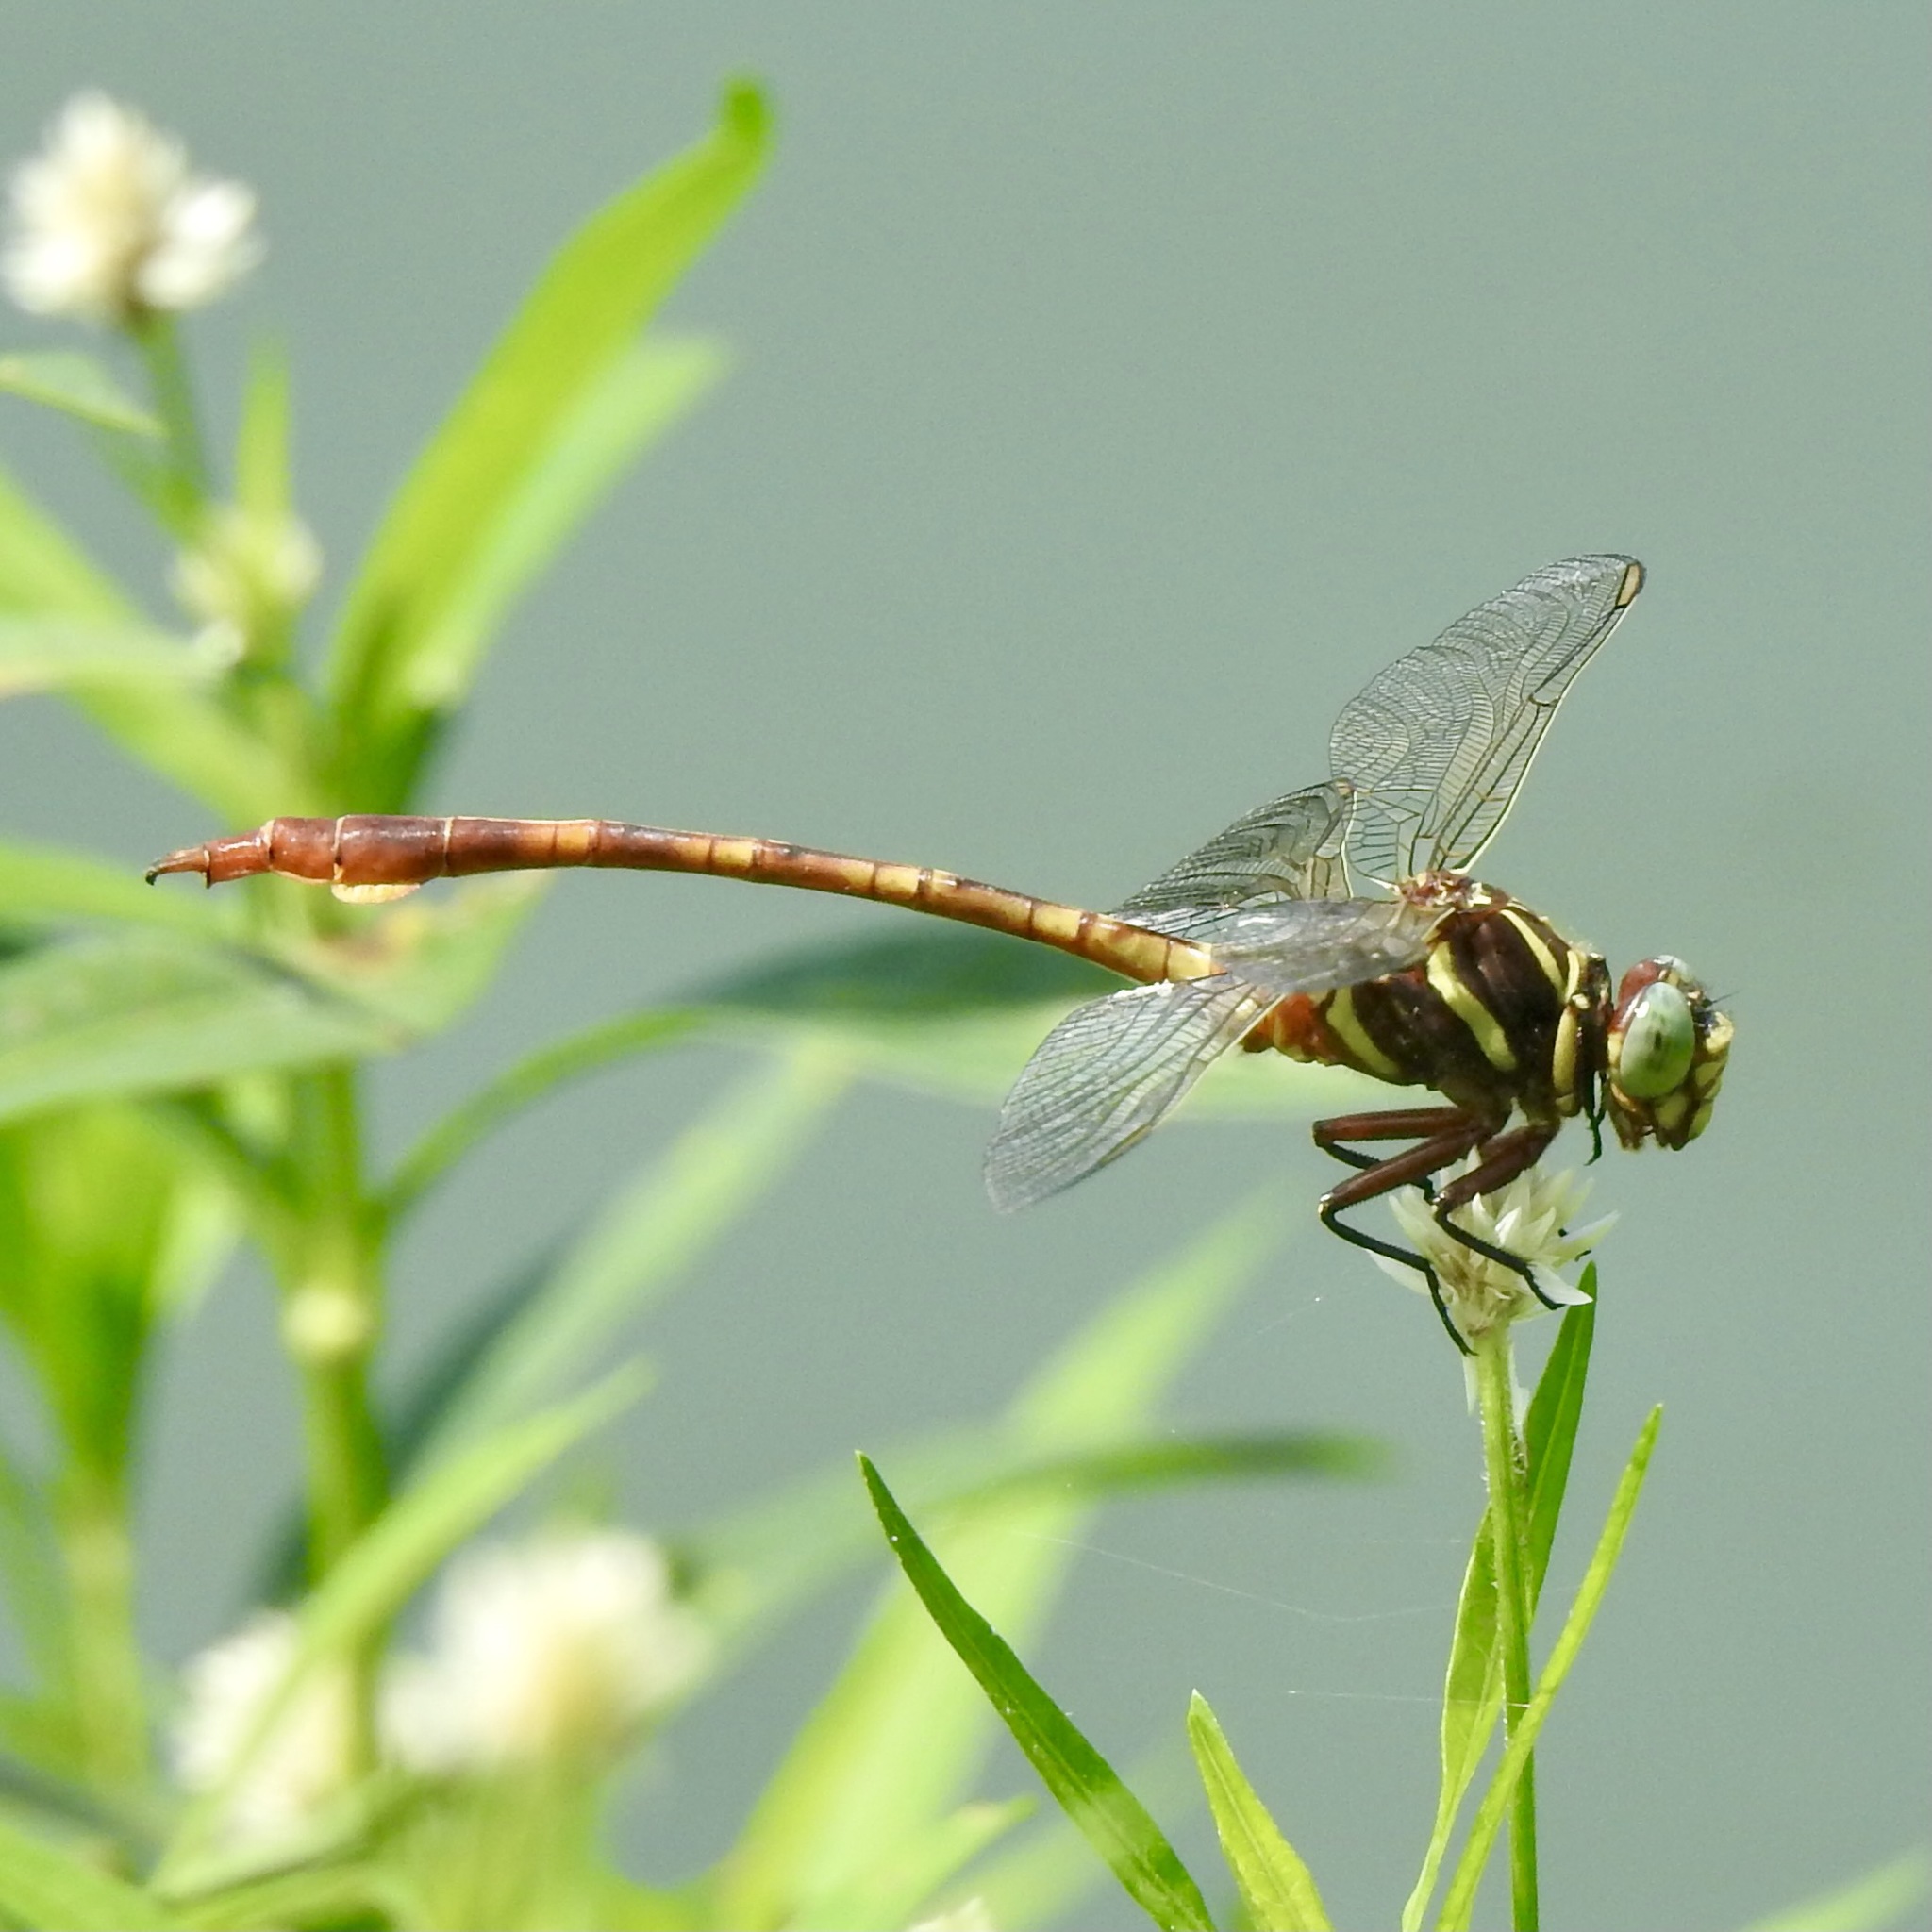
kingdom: Animalia
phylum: Arthropoda
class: Insecta
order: Odonata
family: Gomphidae
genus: Aphylla
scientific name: Aphylla williamsoni
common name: Two-striped forceptail
